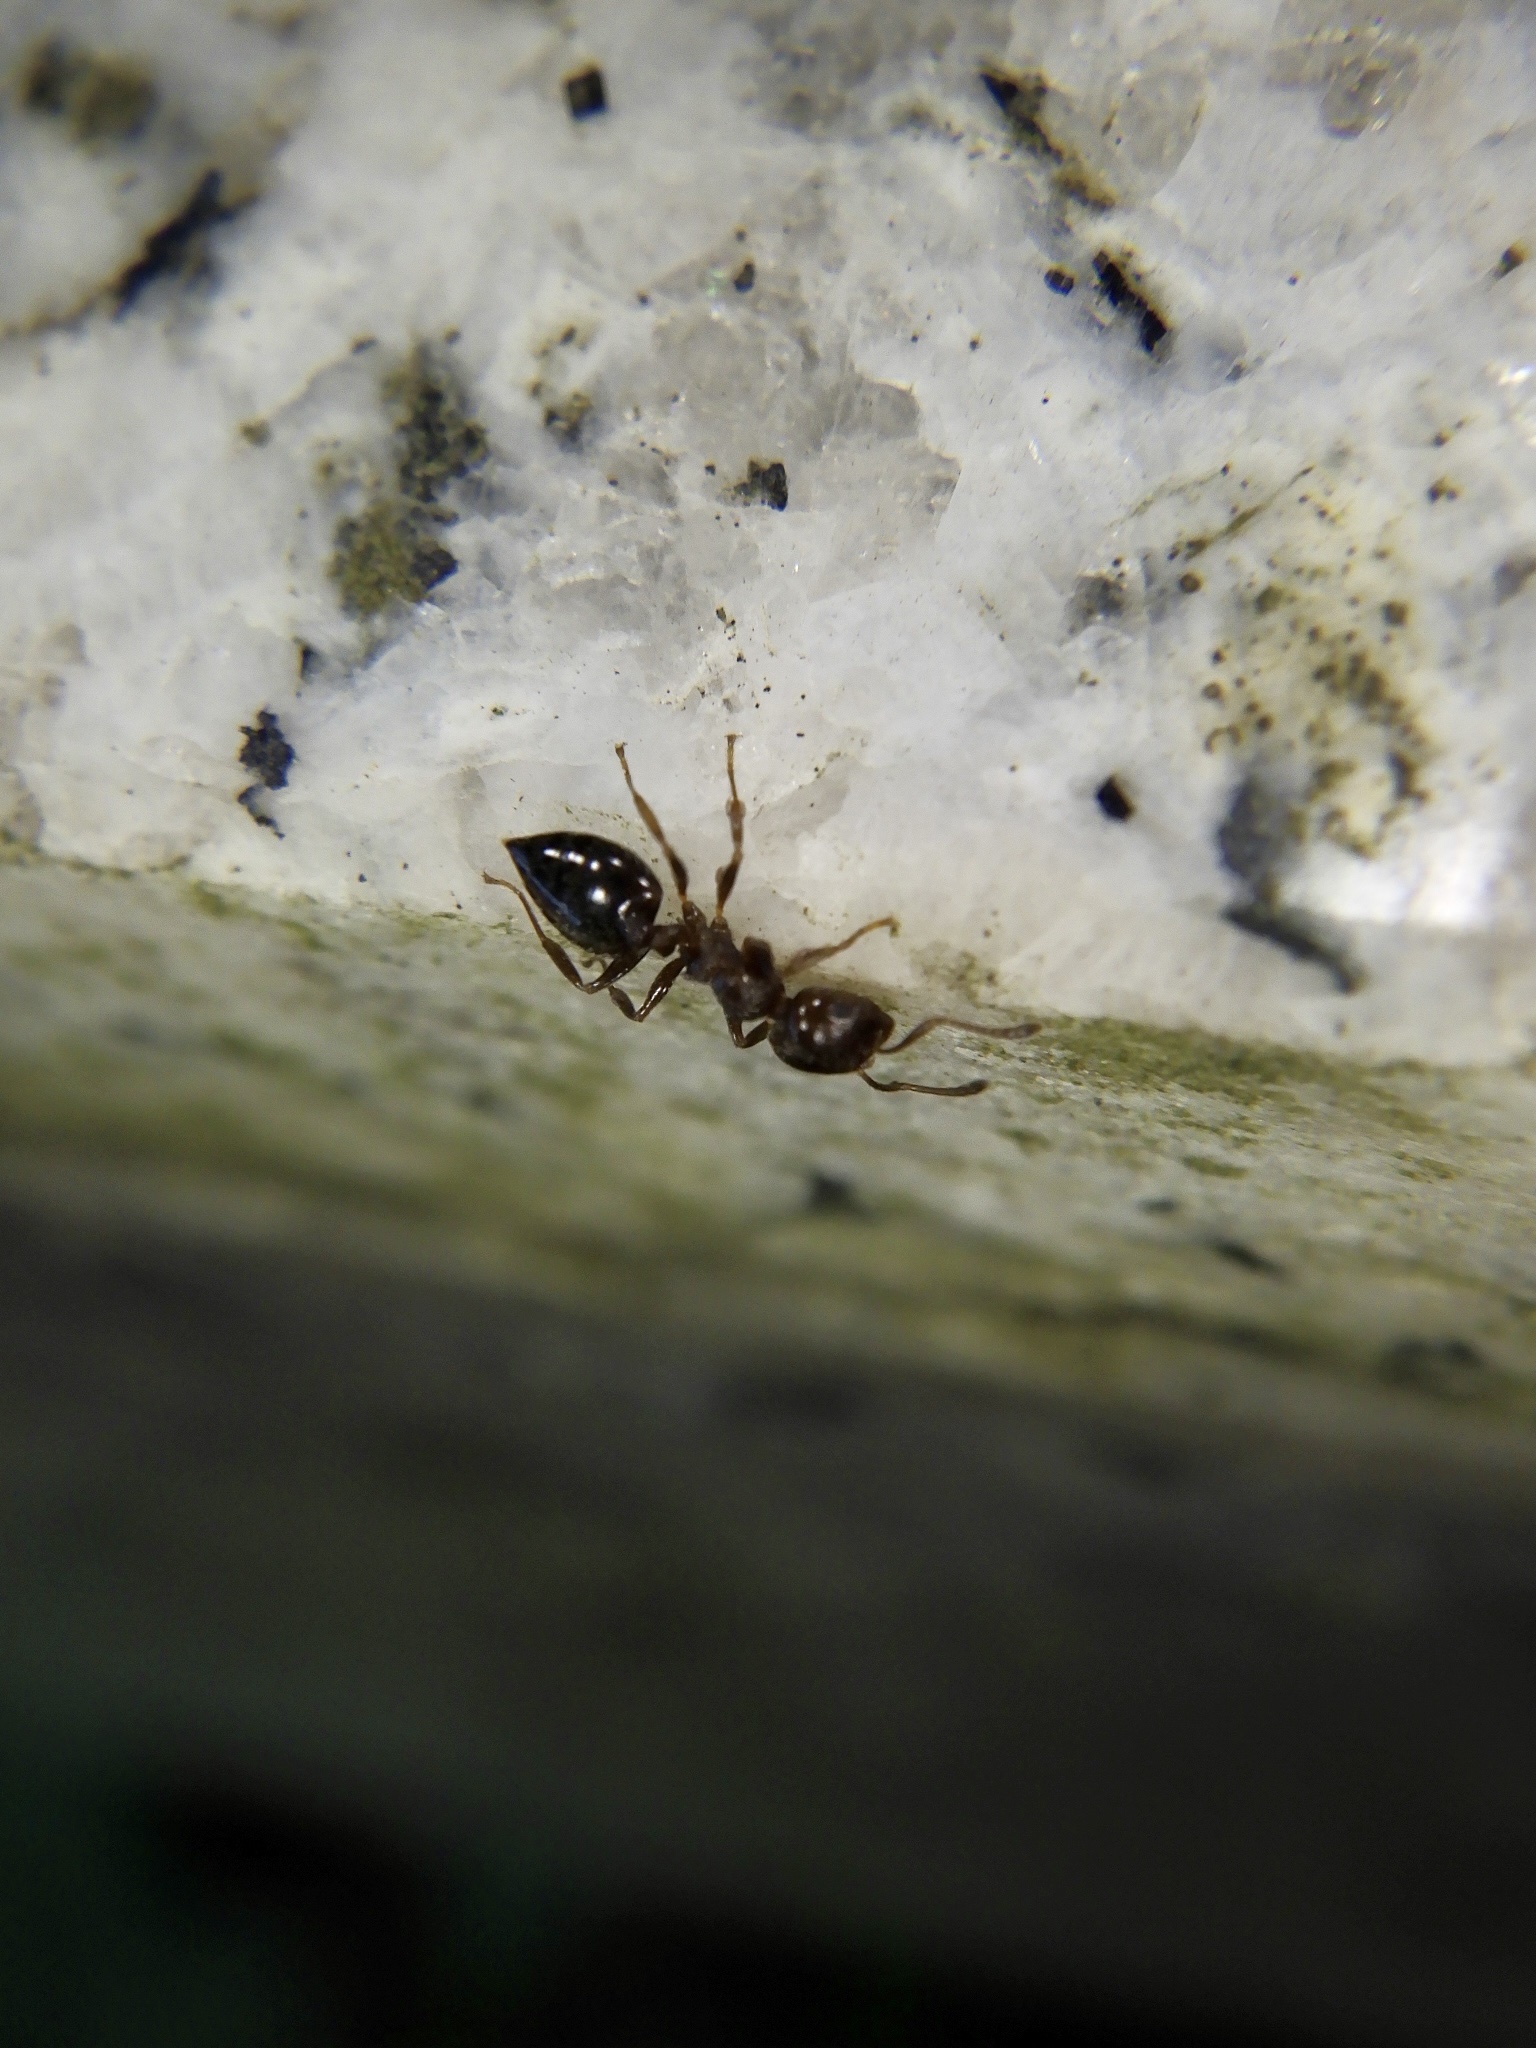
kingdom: Animalia
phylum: Arthropoda
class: Insecta
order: Hymenoptera
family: Formicidae
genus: Crematogaster
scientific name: Crematogaster matsumurai
